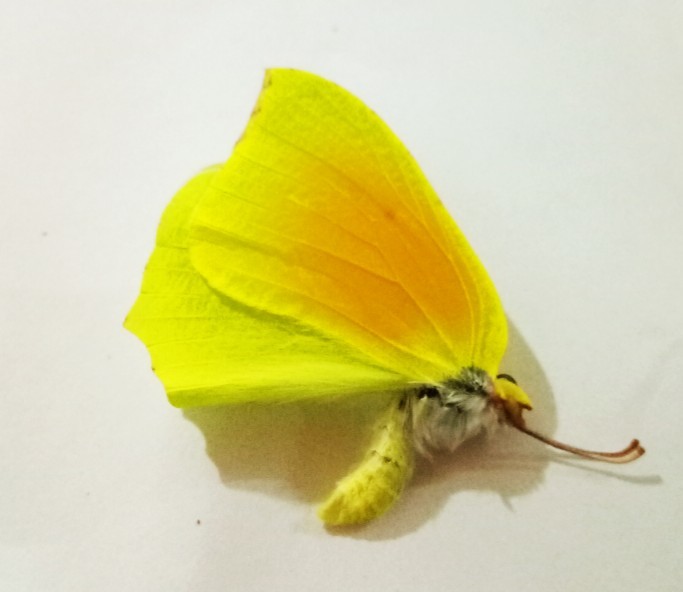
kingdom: Animalia
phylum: Arthropoda
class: Insecta
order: Lepidoptera
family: Pieridae
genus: Gonepteryx
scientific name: Gonepteryx cleopatra
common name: Cleopatra
